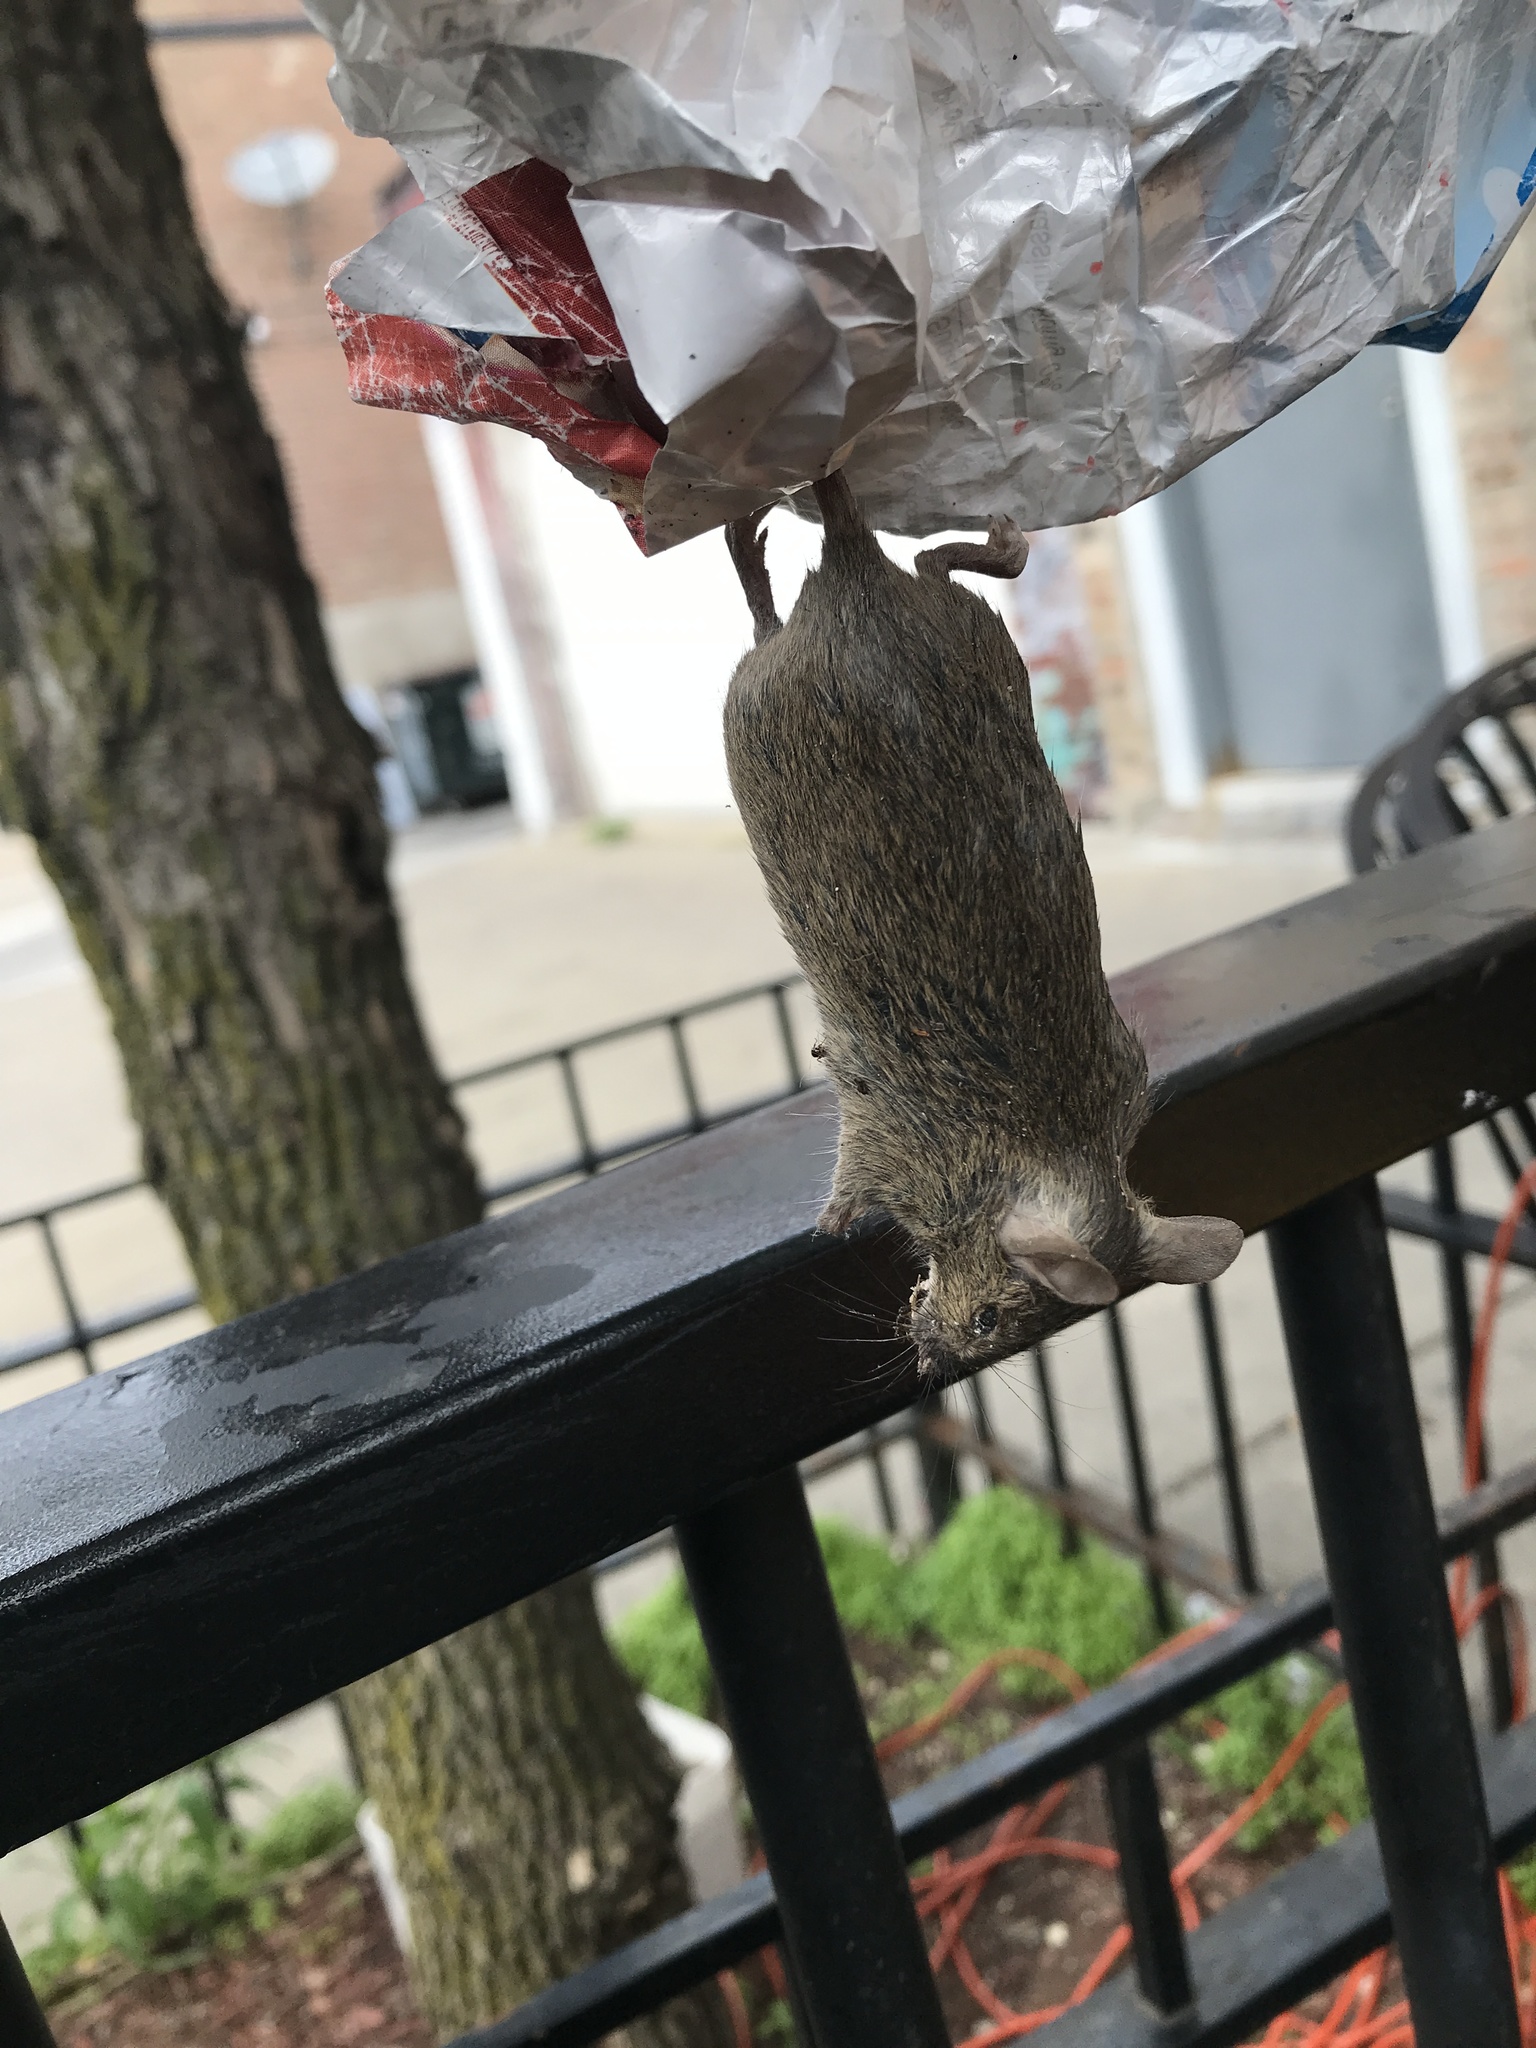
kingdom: Animalia
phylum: Chordata
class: Mammalia
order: Rodentia
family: Muridae
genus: Mus
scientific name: Mus musculus
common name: House mouse
